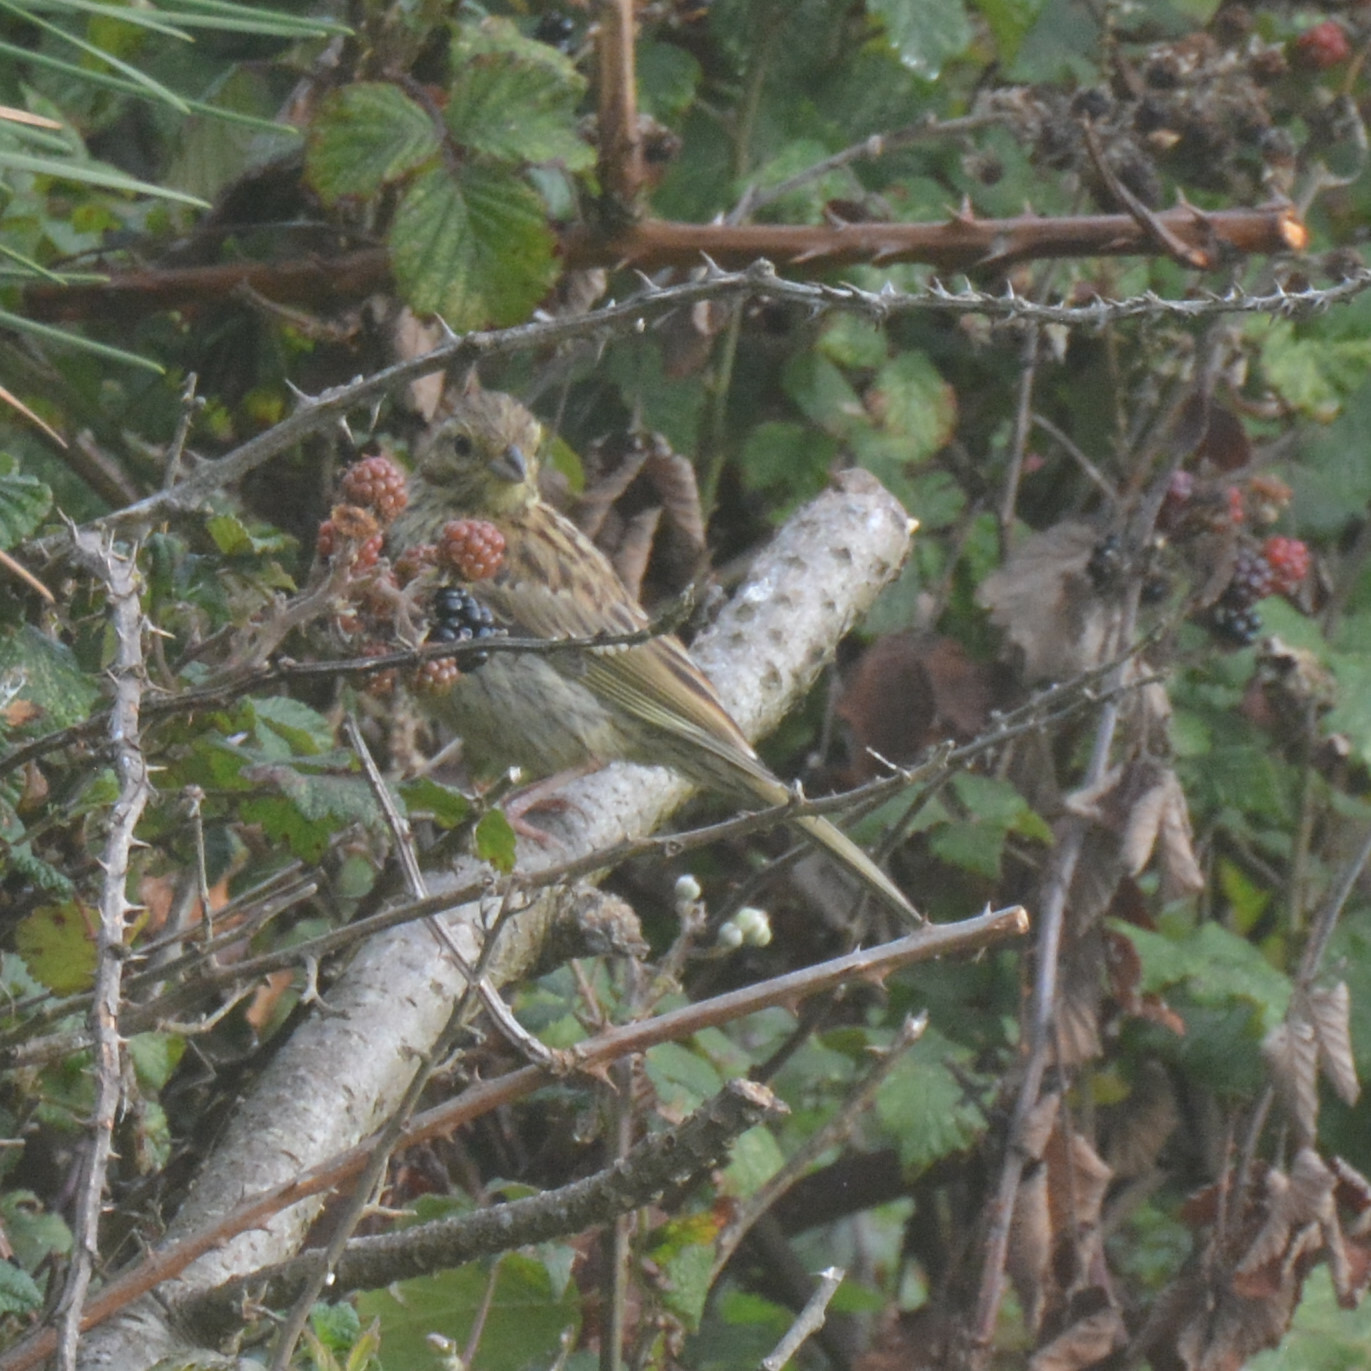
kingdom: Animalia
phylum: Chordata
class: Aves
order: Passeriformes
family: Emberizidae
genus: Emberiza
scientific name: Emberiza cirlus
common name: Cirl bunting
